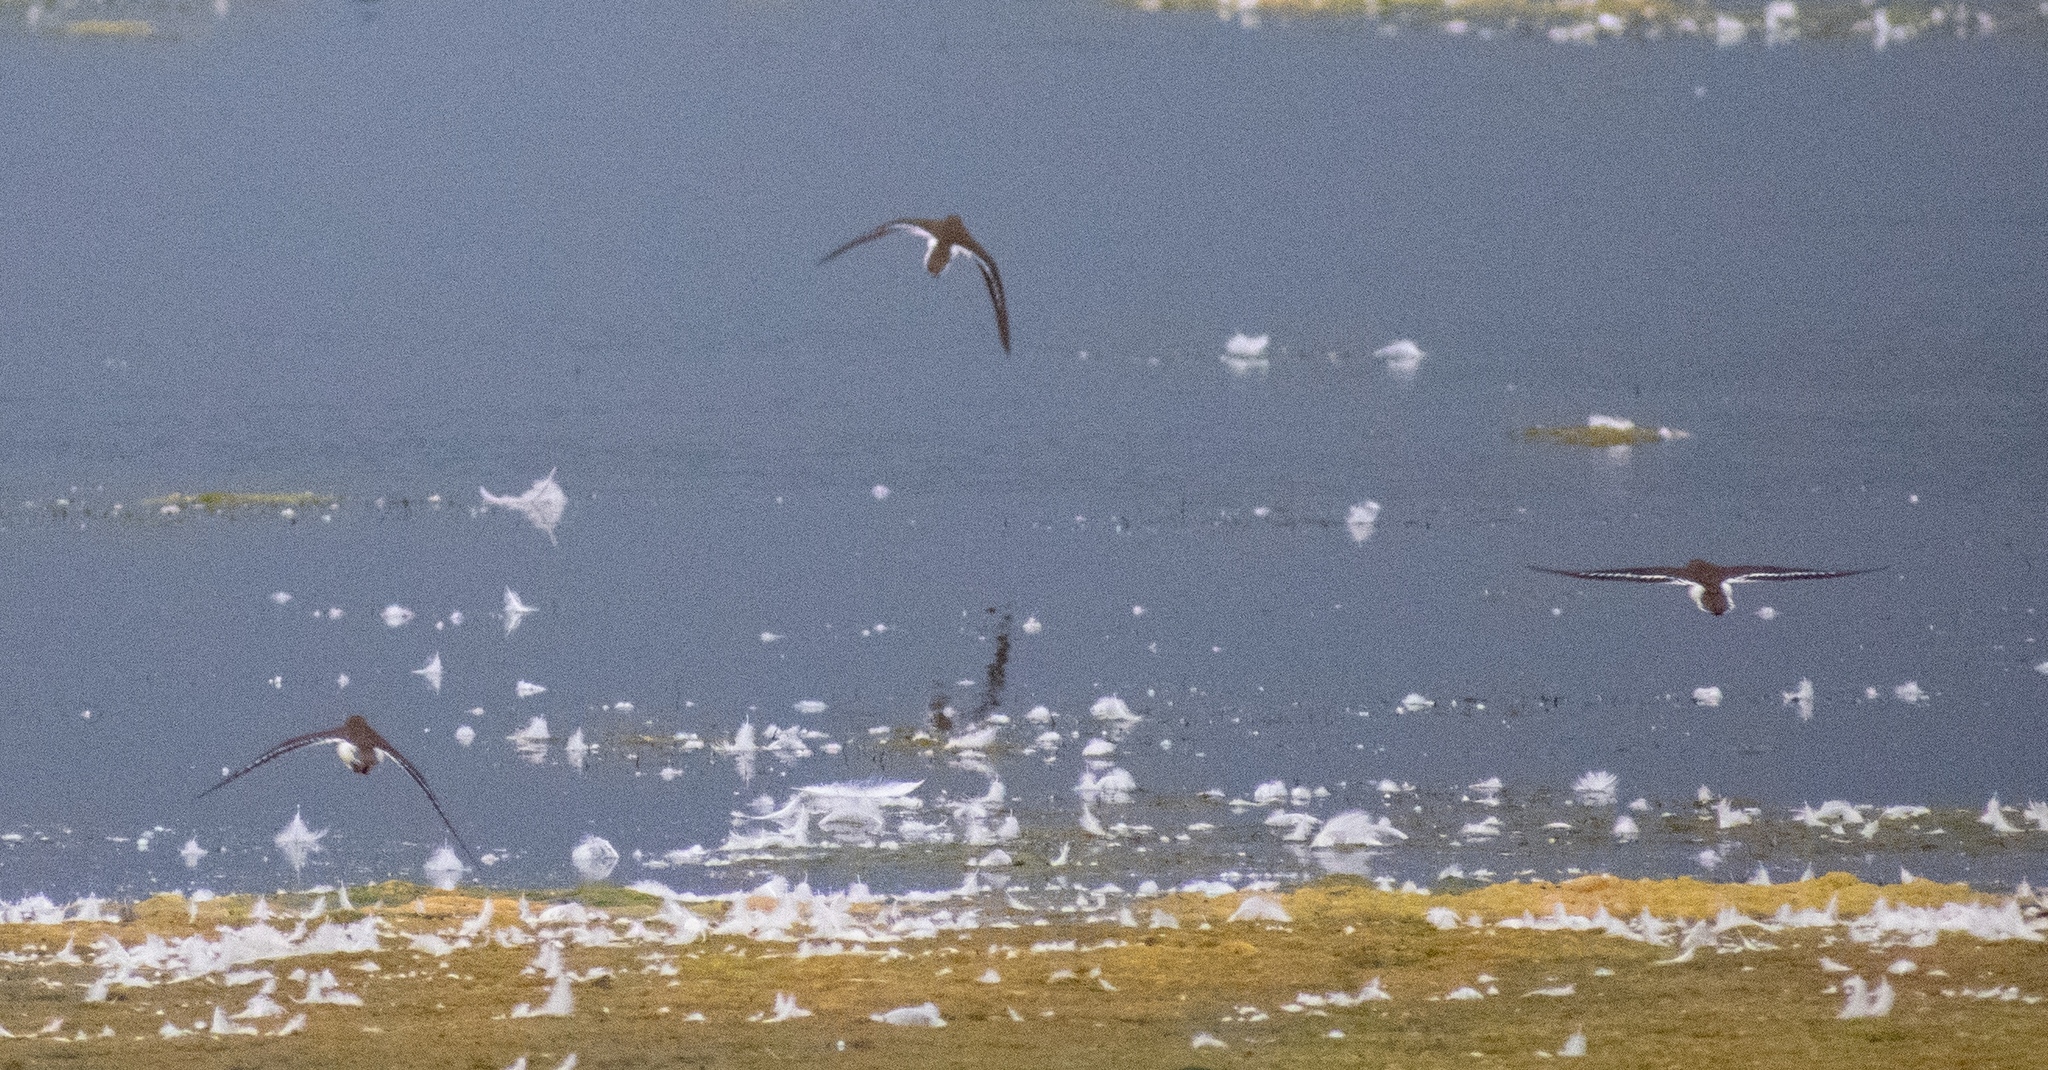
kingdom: Animalia
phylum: Chordata
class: Aves
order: Charadriiformes
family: Scolopacidae
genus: Actitis
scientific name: Actitis hypoleucos
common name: Common sandpiper
